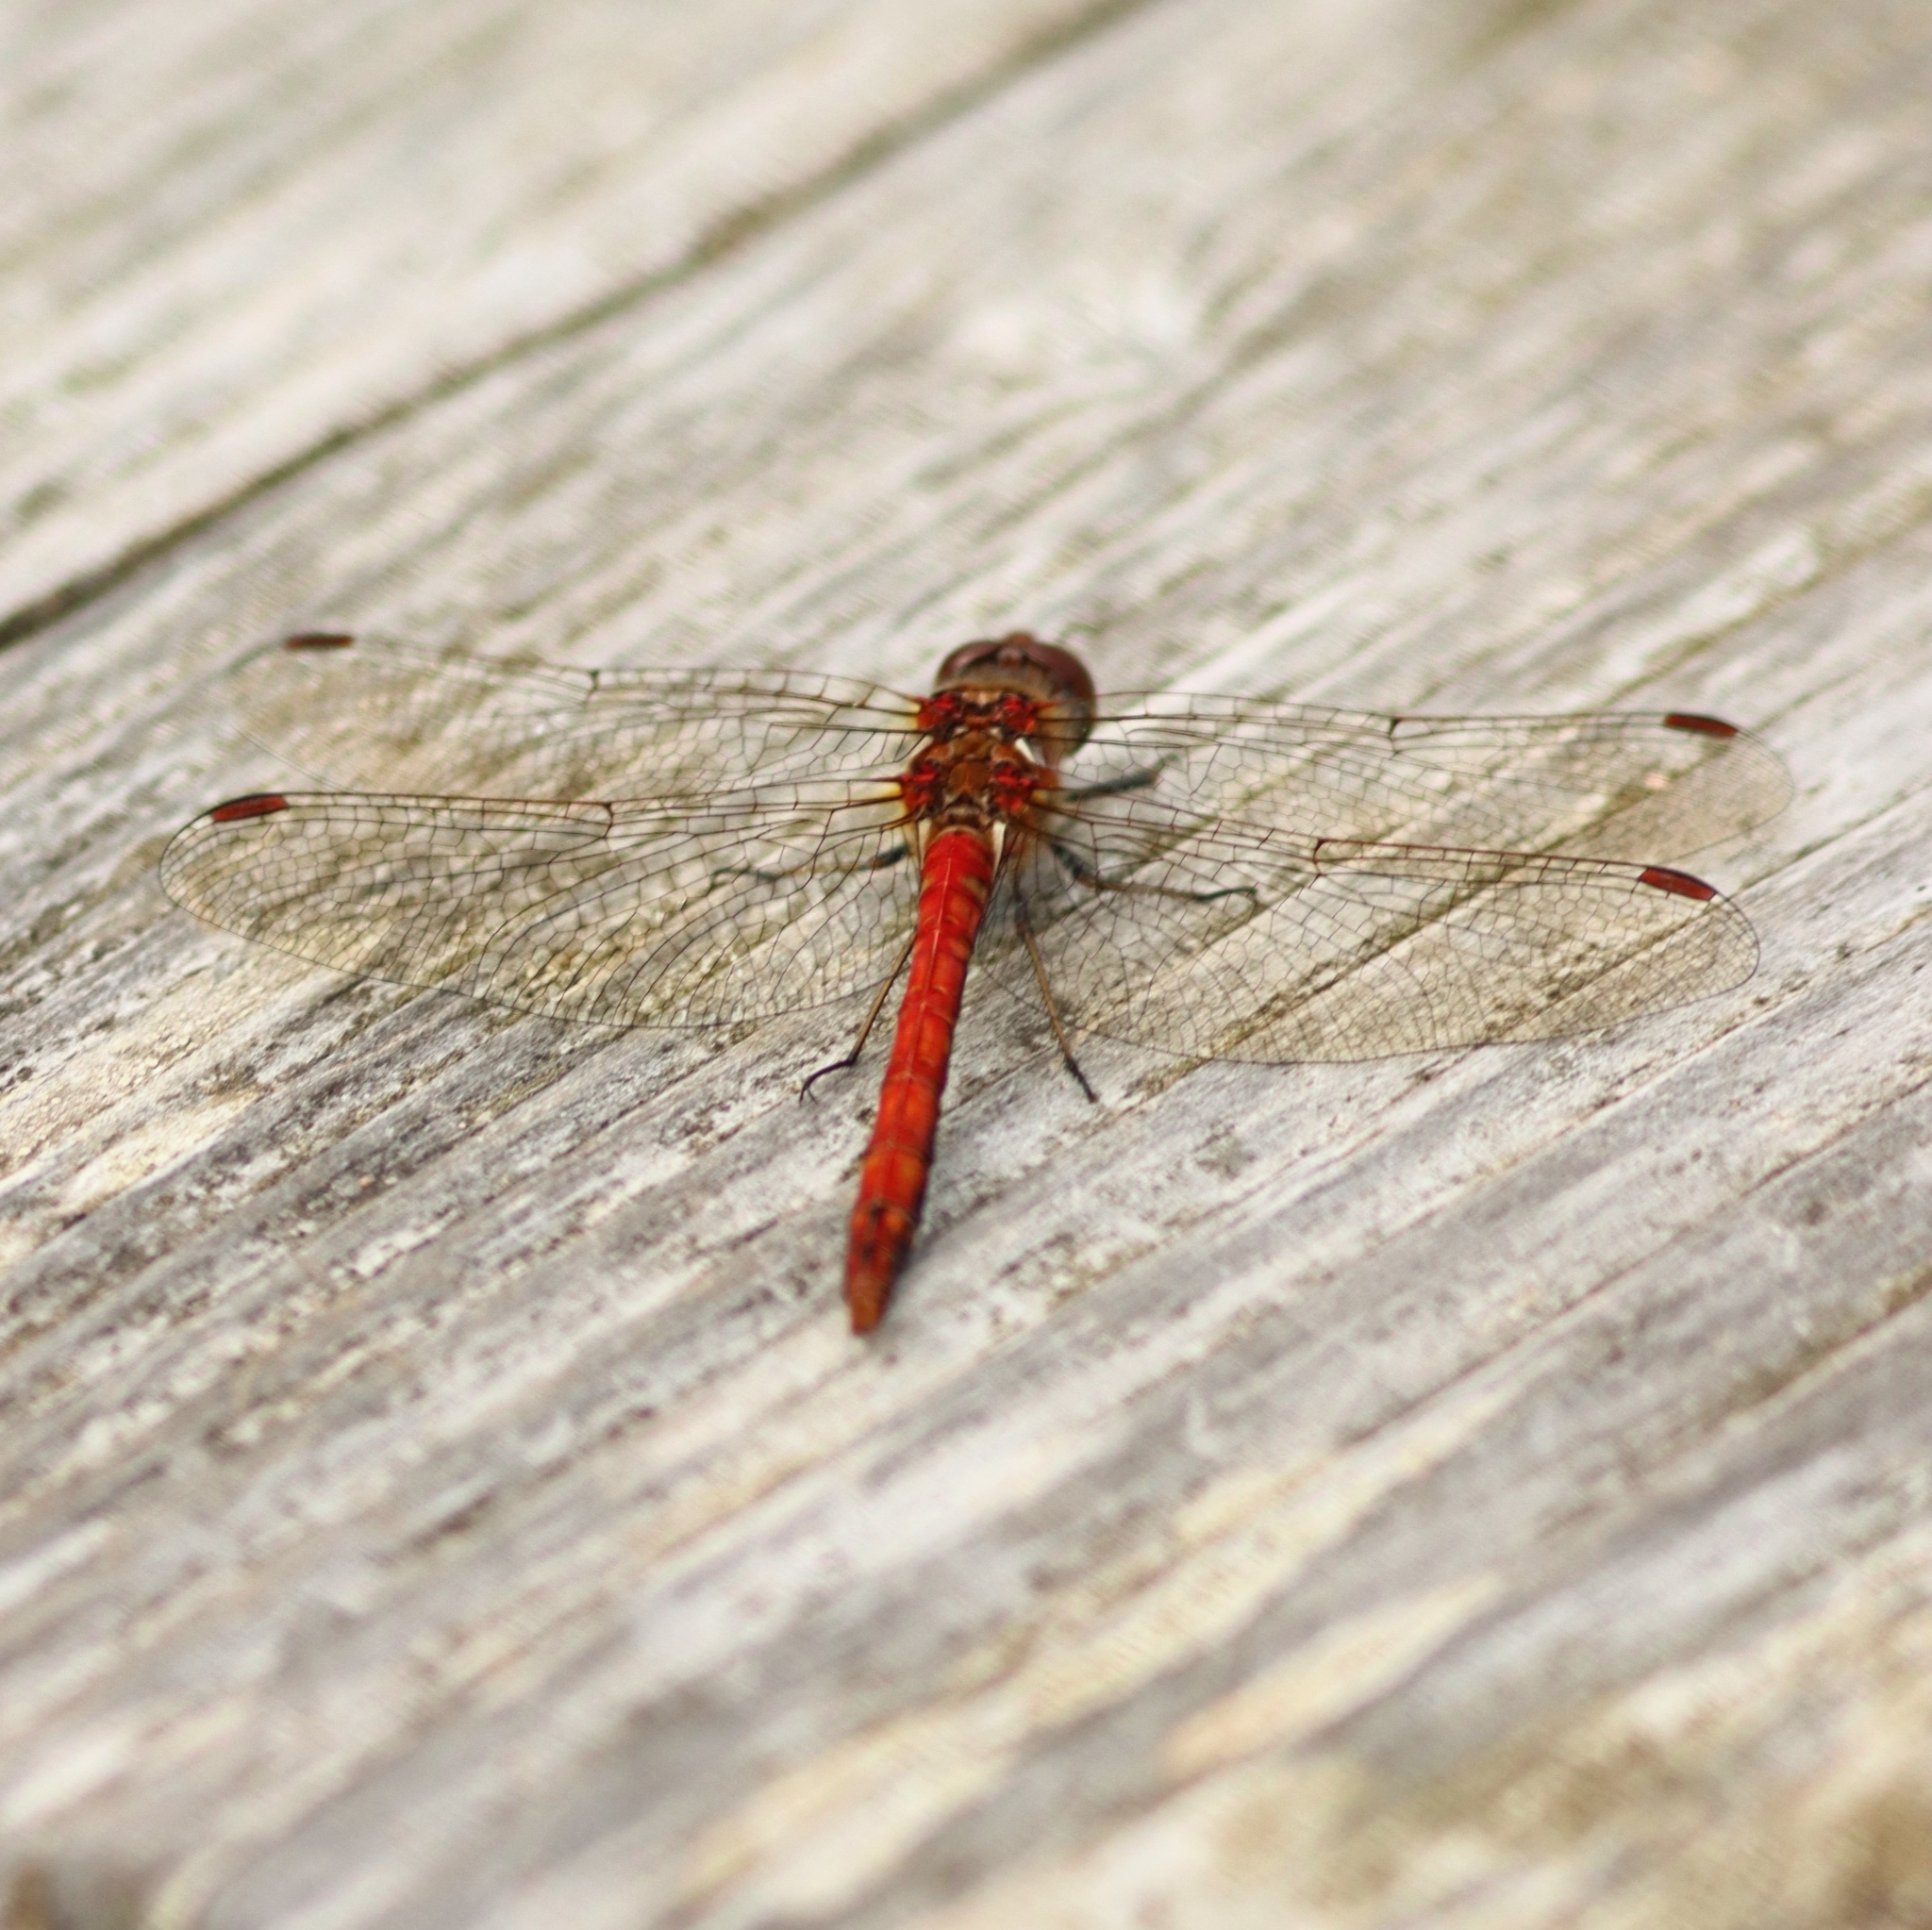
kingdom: Animalia
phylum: Arthropoda
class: Insecta
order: Odonata
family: Libellulidae
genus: Sympetrum
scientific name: Sympetrum striolatum
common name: Common darter
